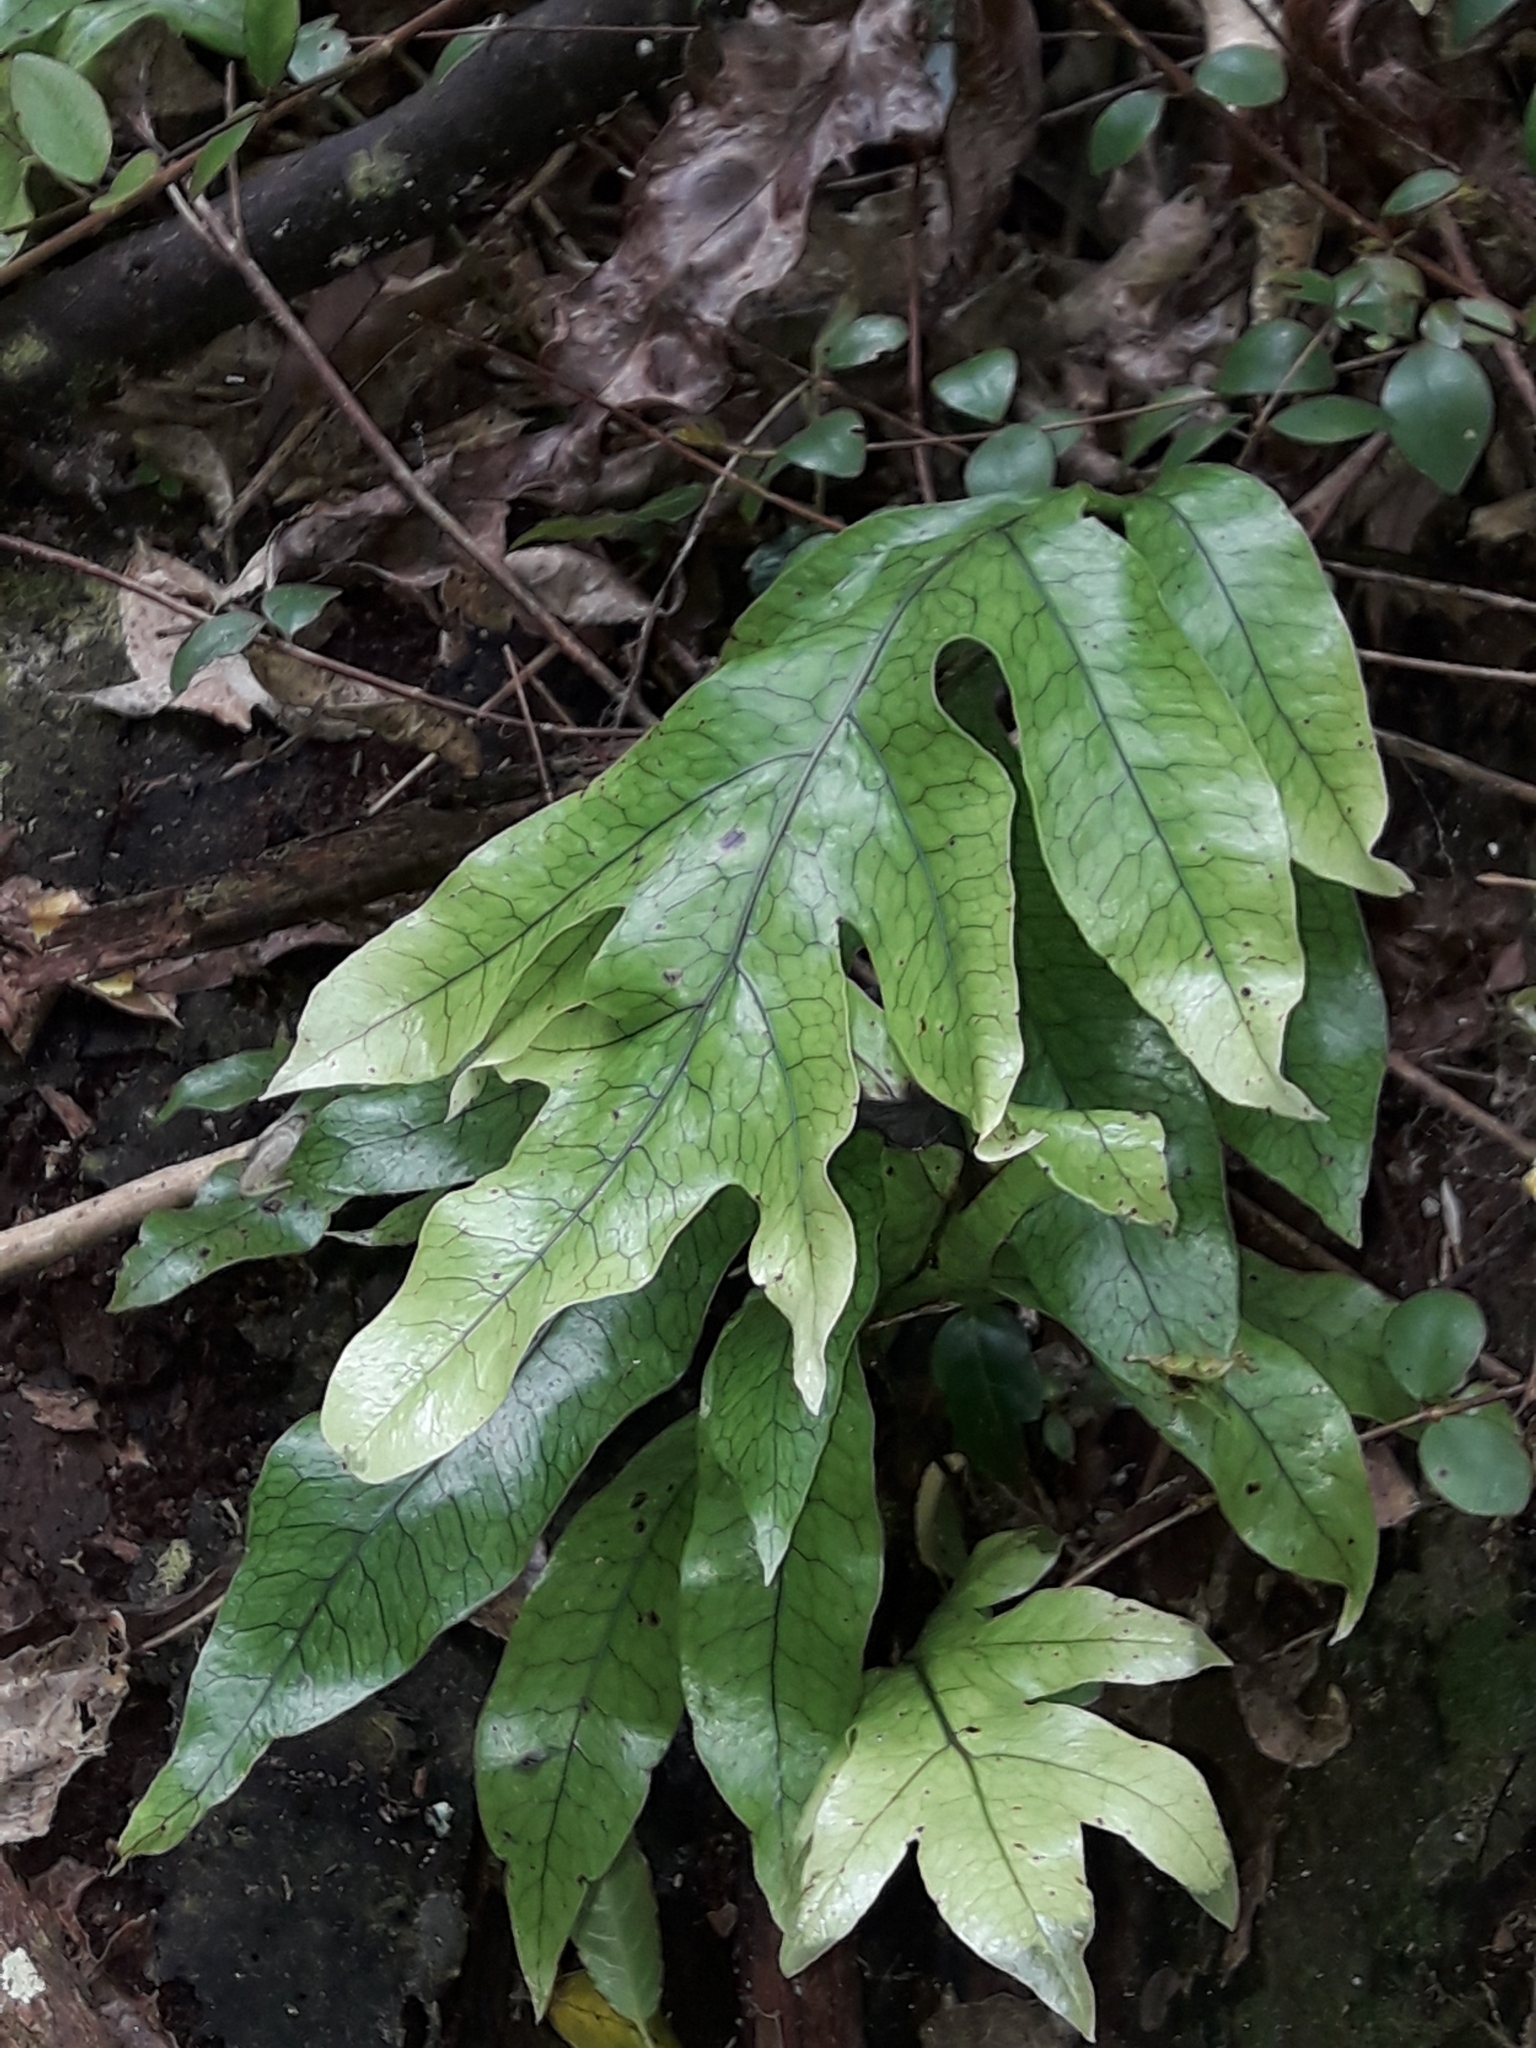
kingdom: Plantae
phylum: Tracheophyta
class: Polypodiopsida
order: Polypodiales
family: Polypodiaceae
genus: Lecanopteris
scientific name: Lecanopteris pustulata
